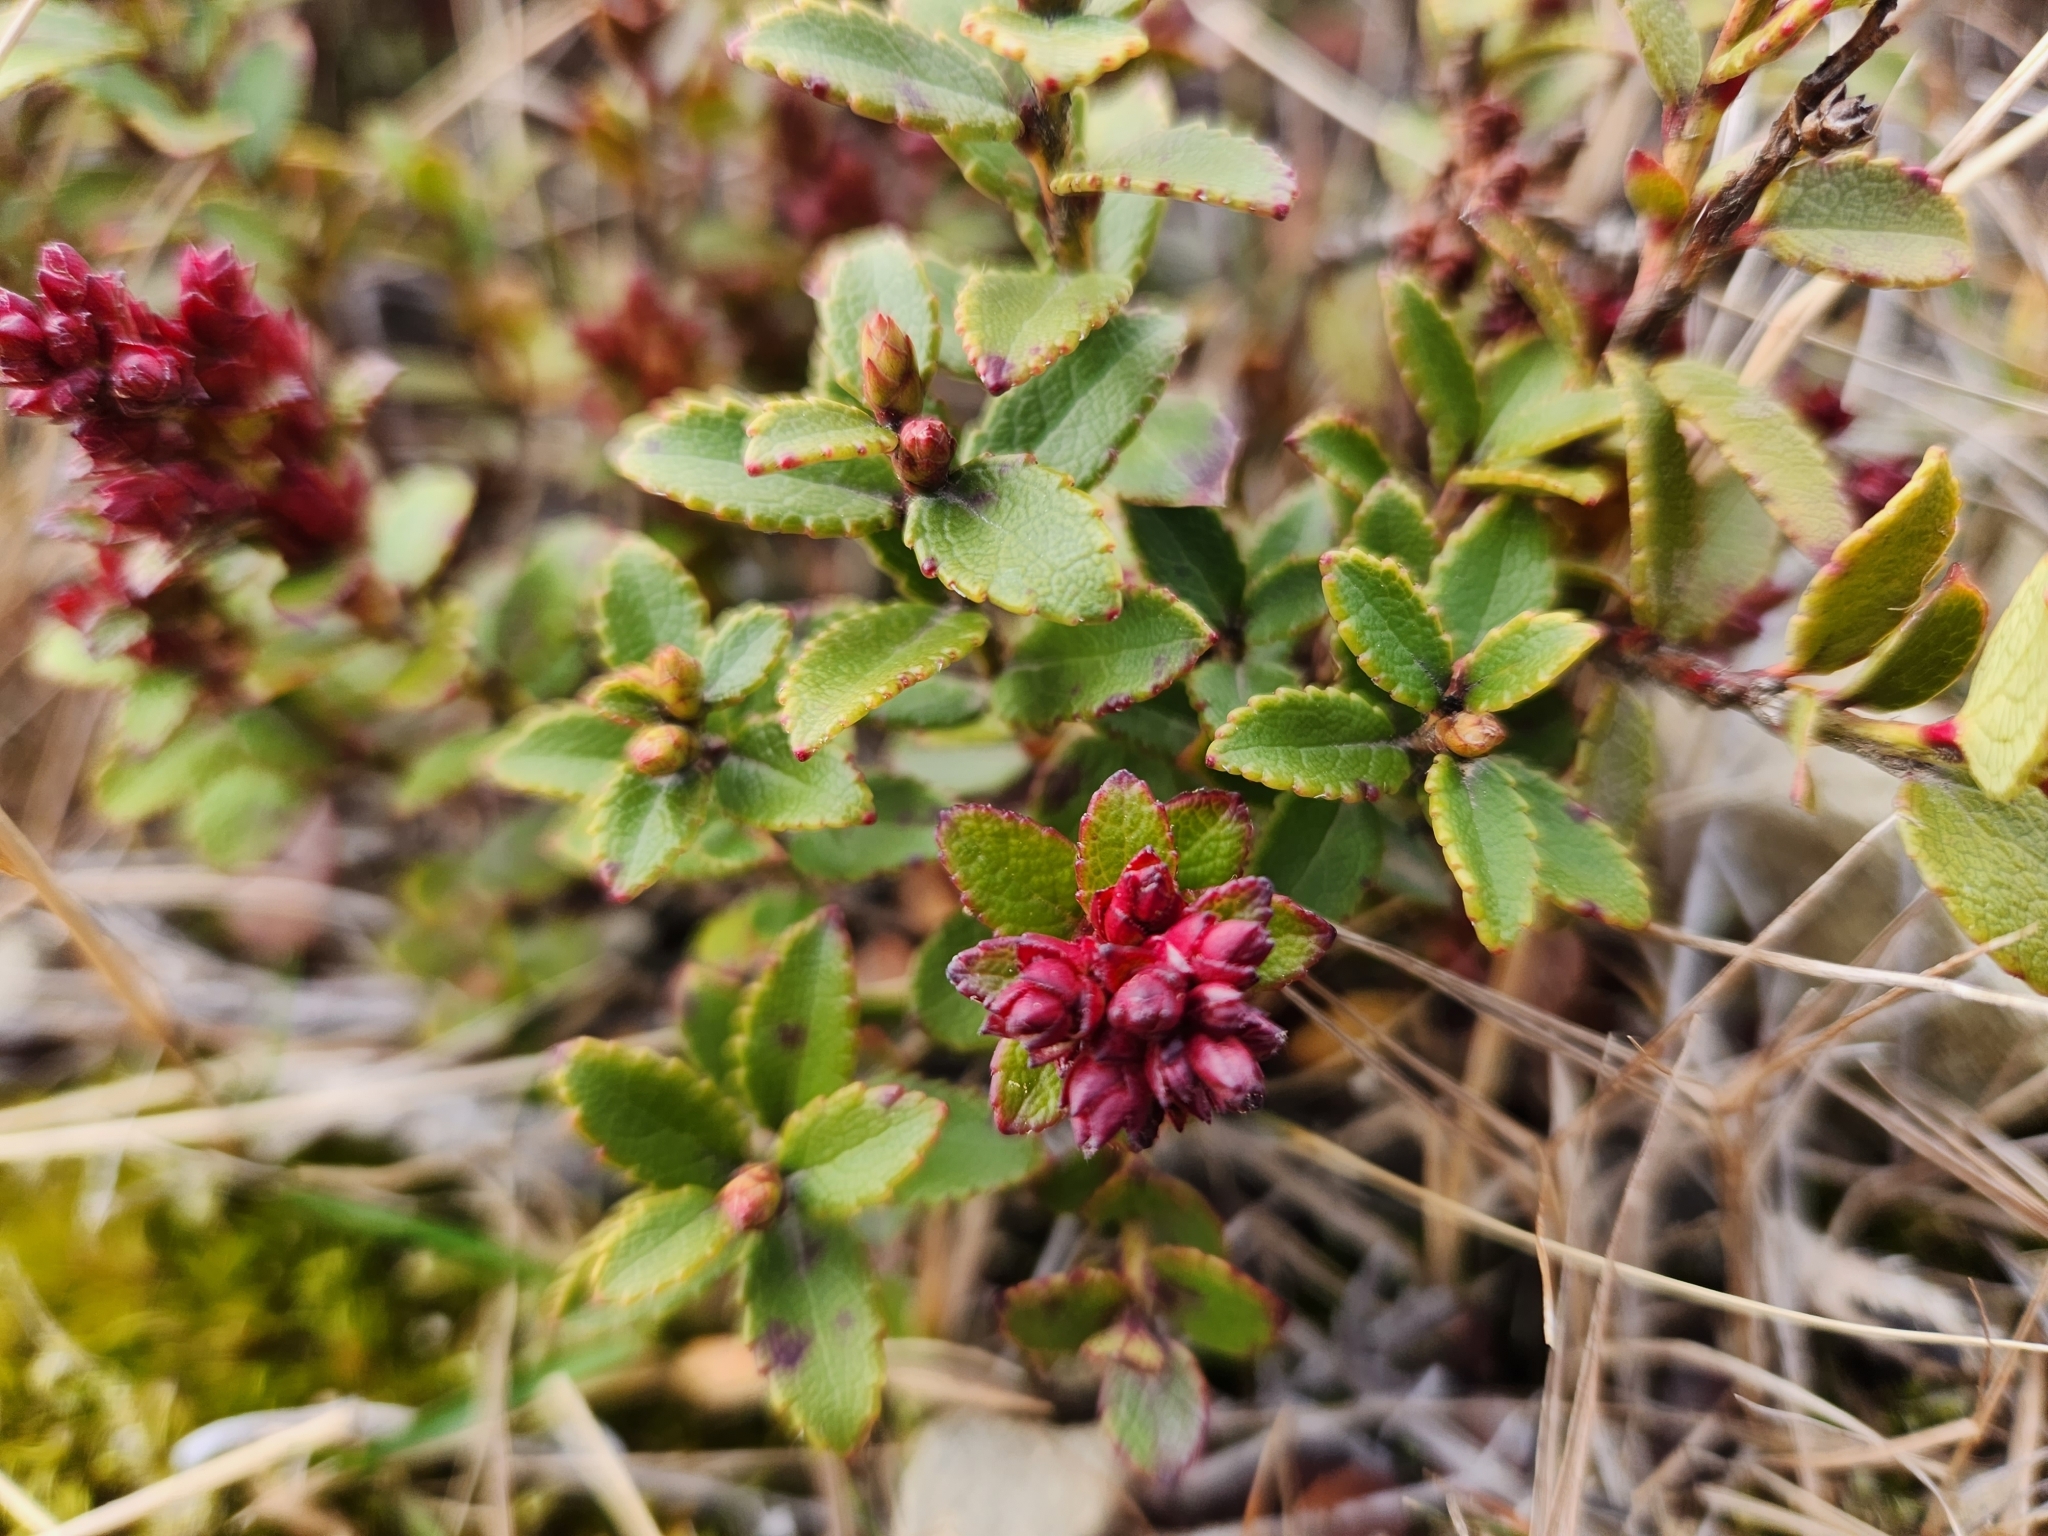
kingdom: Plantae
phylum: Tracheophyta
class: Magnoliopsida
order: Ericales
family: Ericaceae
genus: Gaultheria
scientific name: Gaultheria crassa
